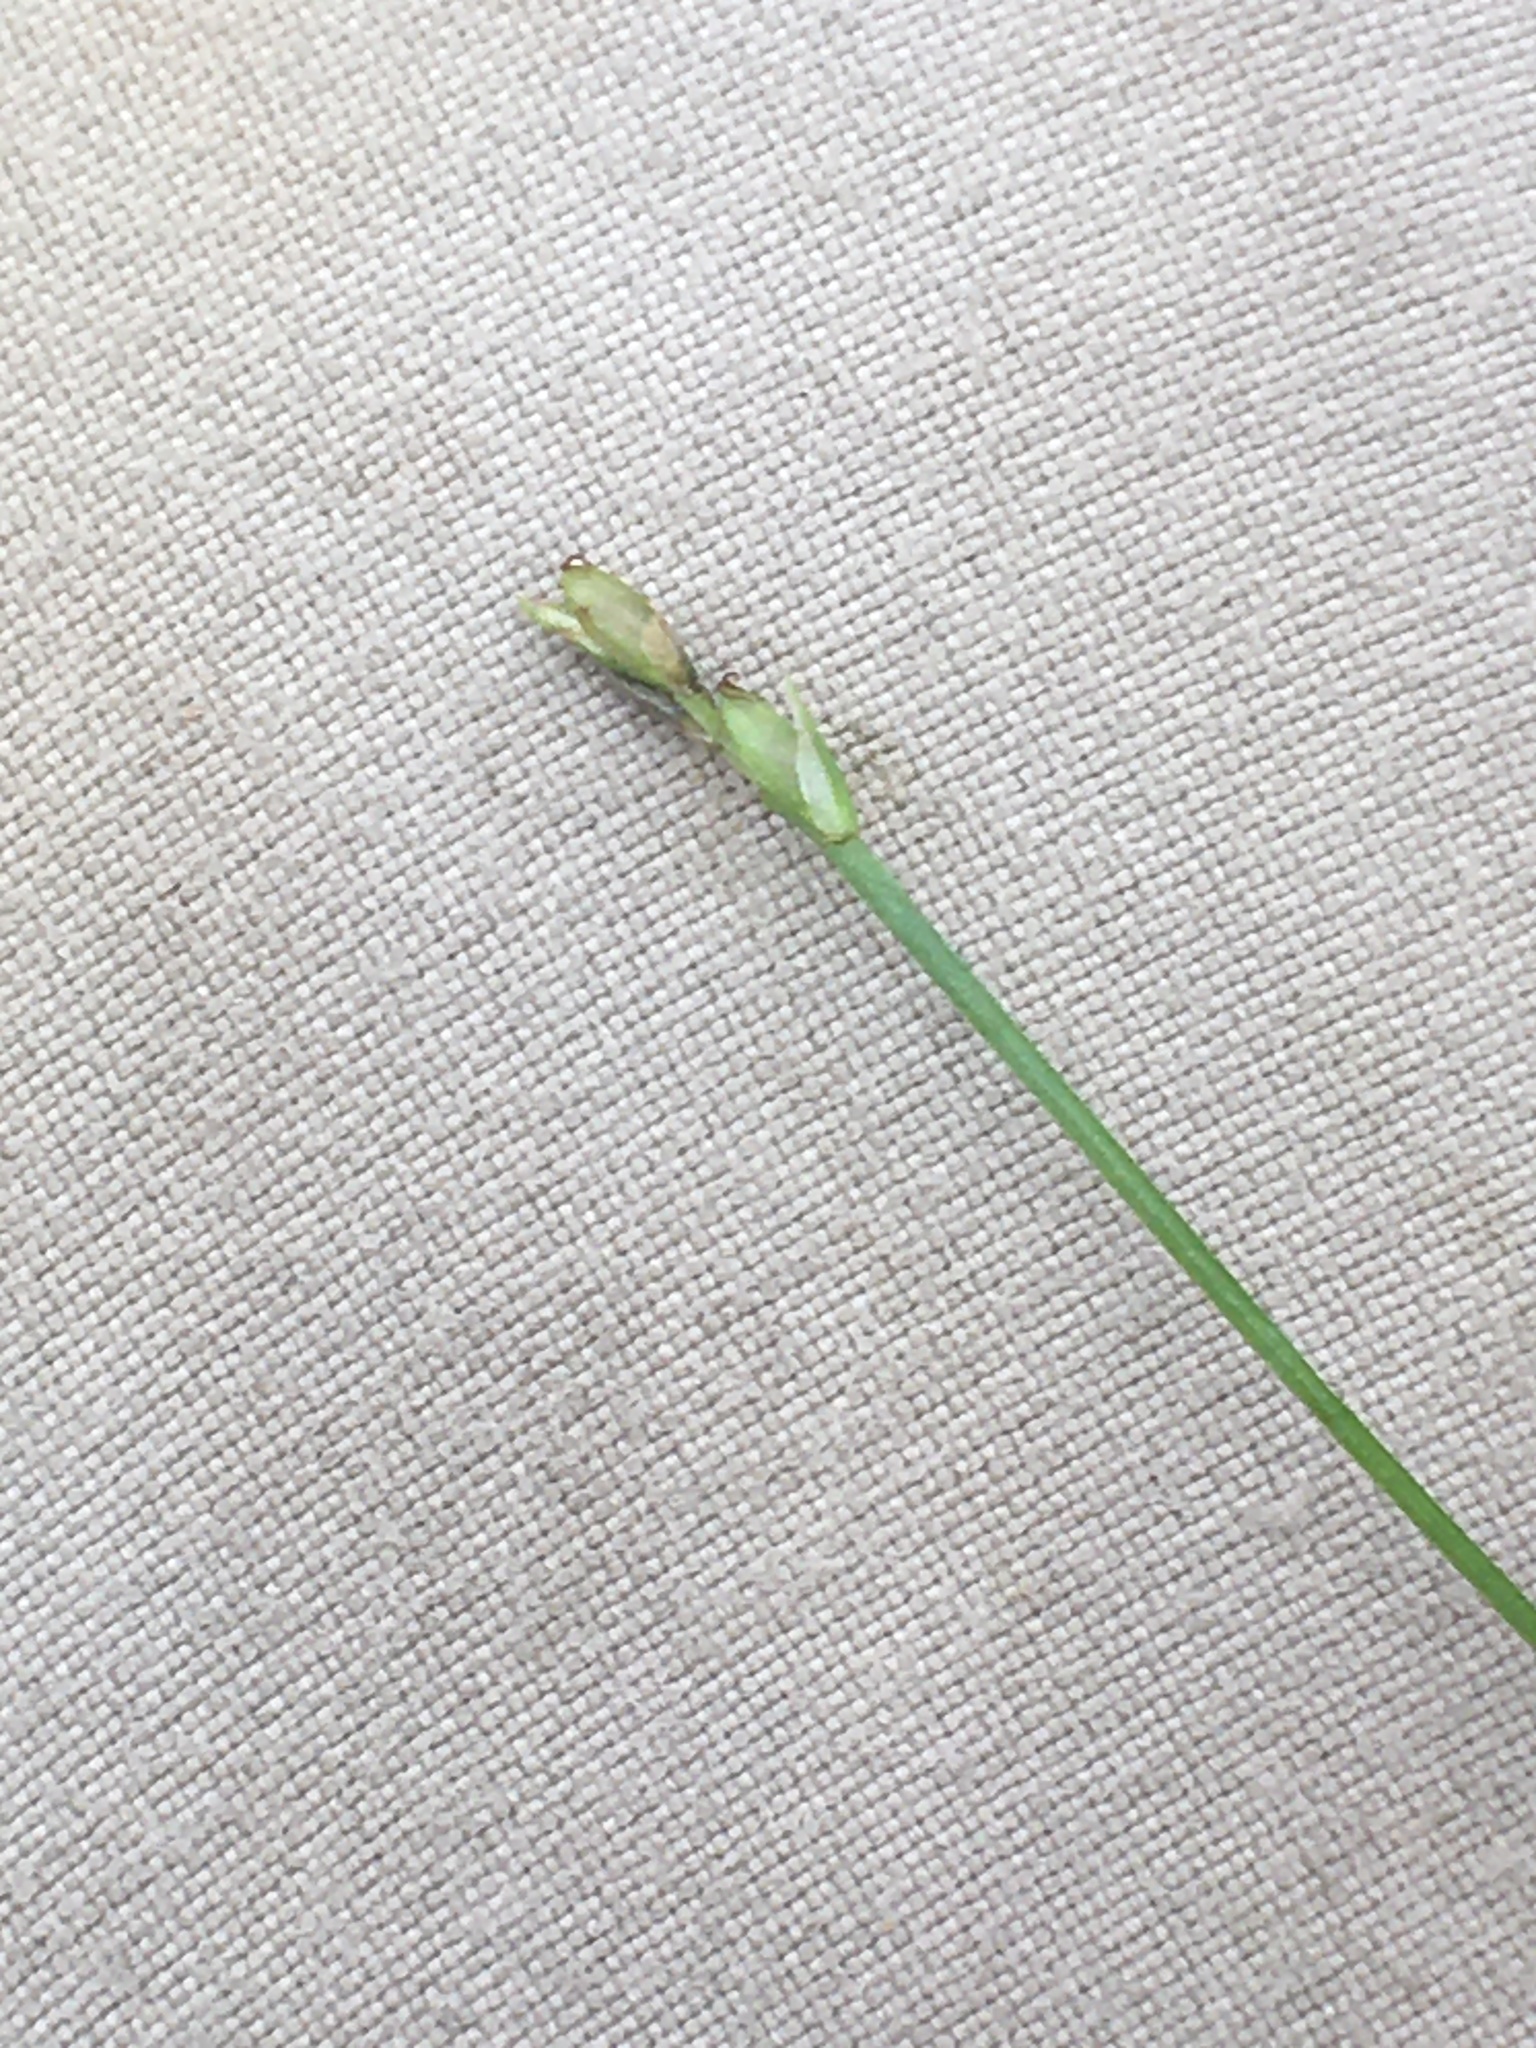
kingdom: Plantae
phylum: Tracheophyta
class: Liliopsida
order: Poales
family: Cyperaceae
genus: Carex
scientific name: Carex leptalea
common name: Bristly-stalked sedge
